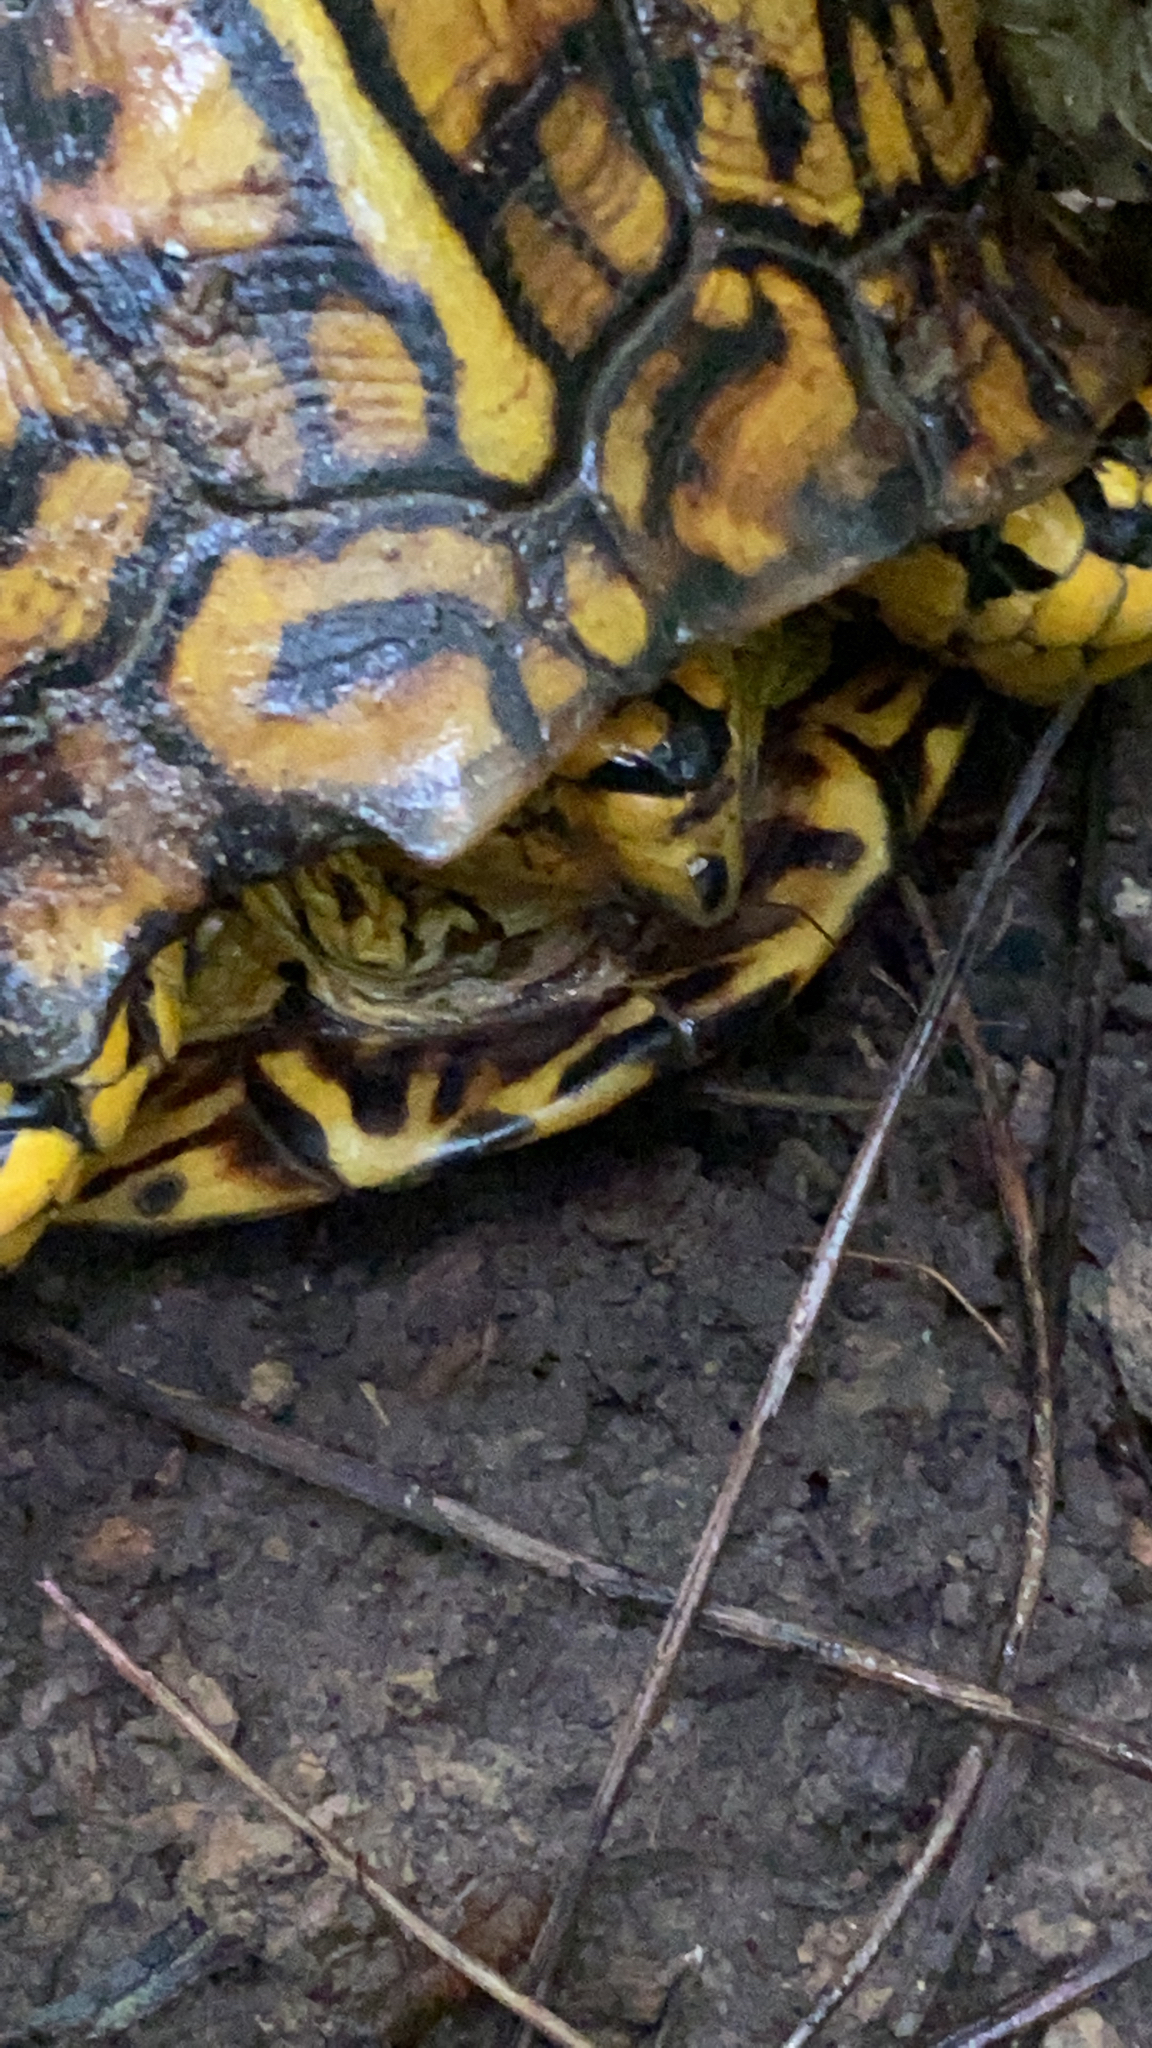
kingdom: Animalia
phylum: Chordata
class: Testudines
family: Emydidae
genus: Terrapene
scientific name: Terrapene carolina
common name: Common box turtle
